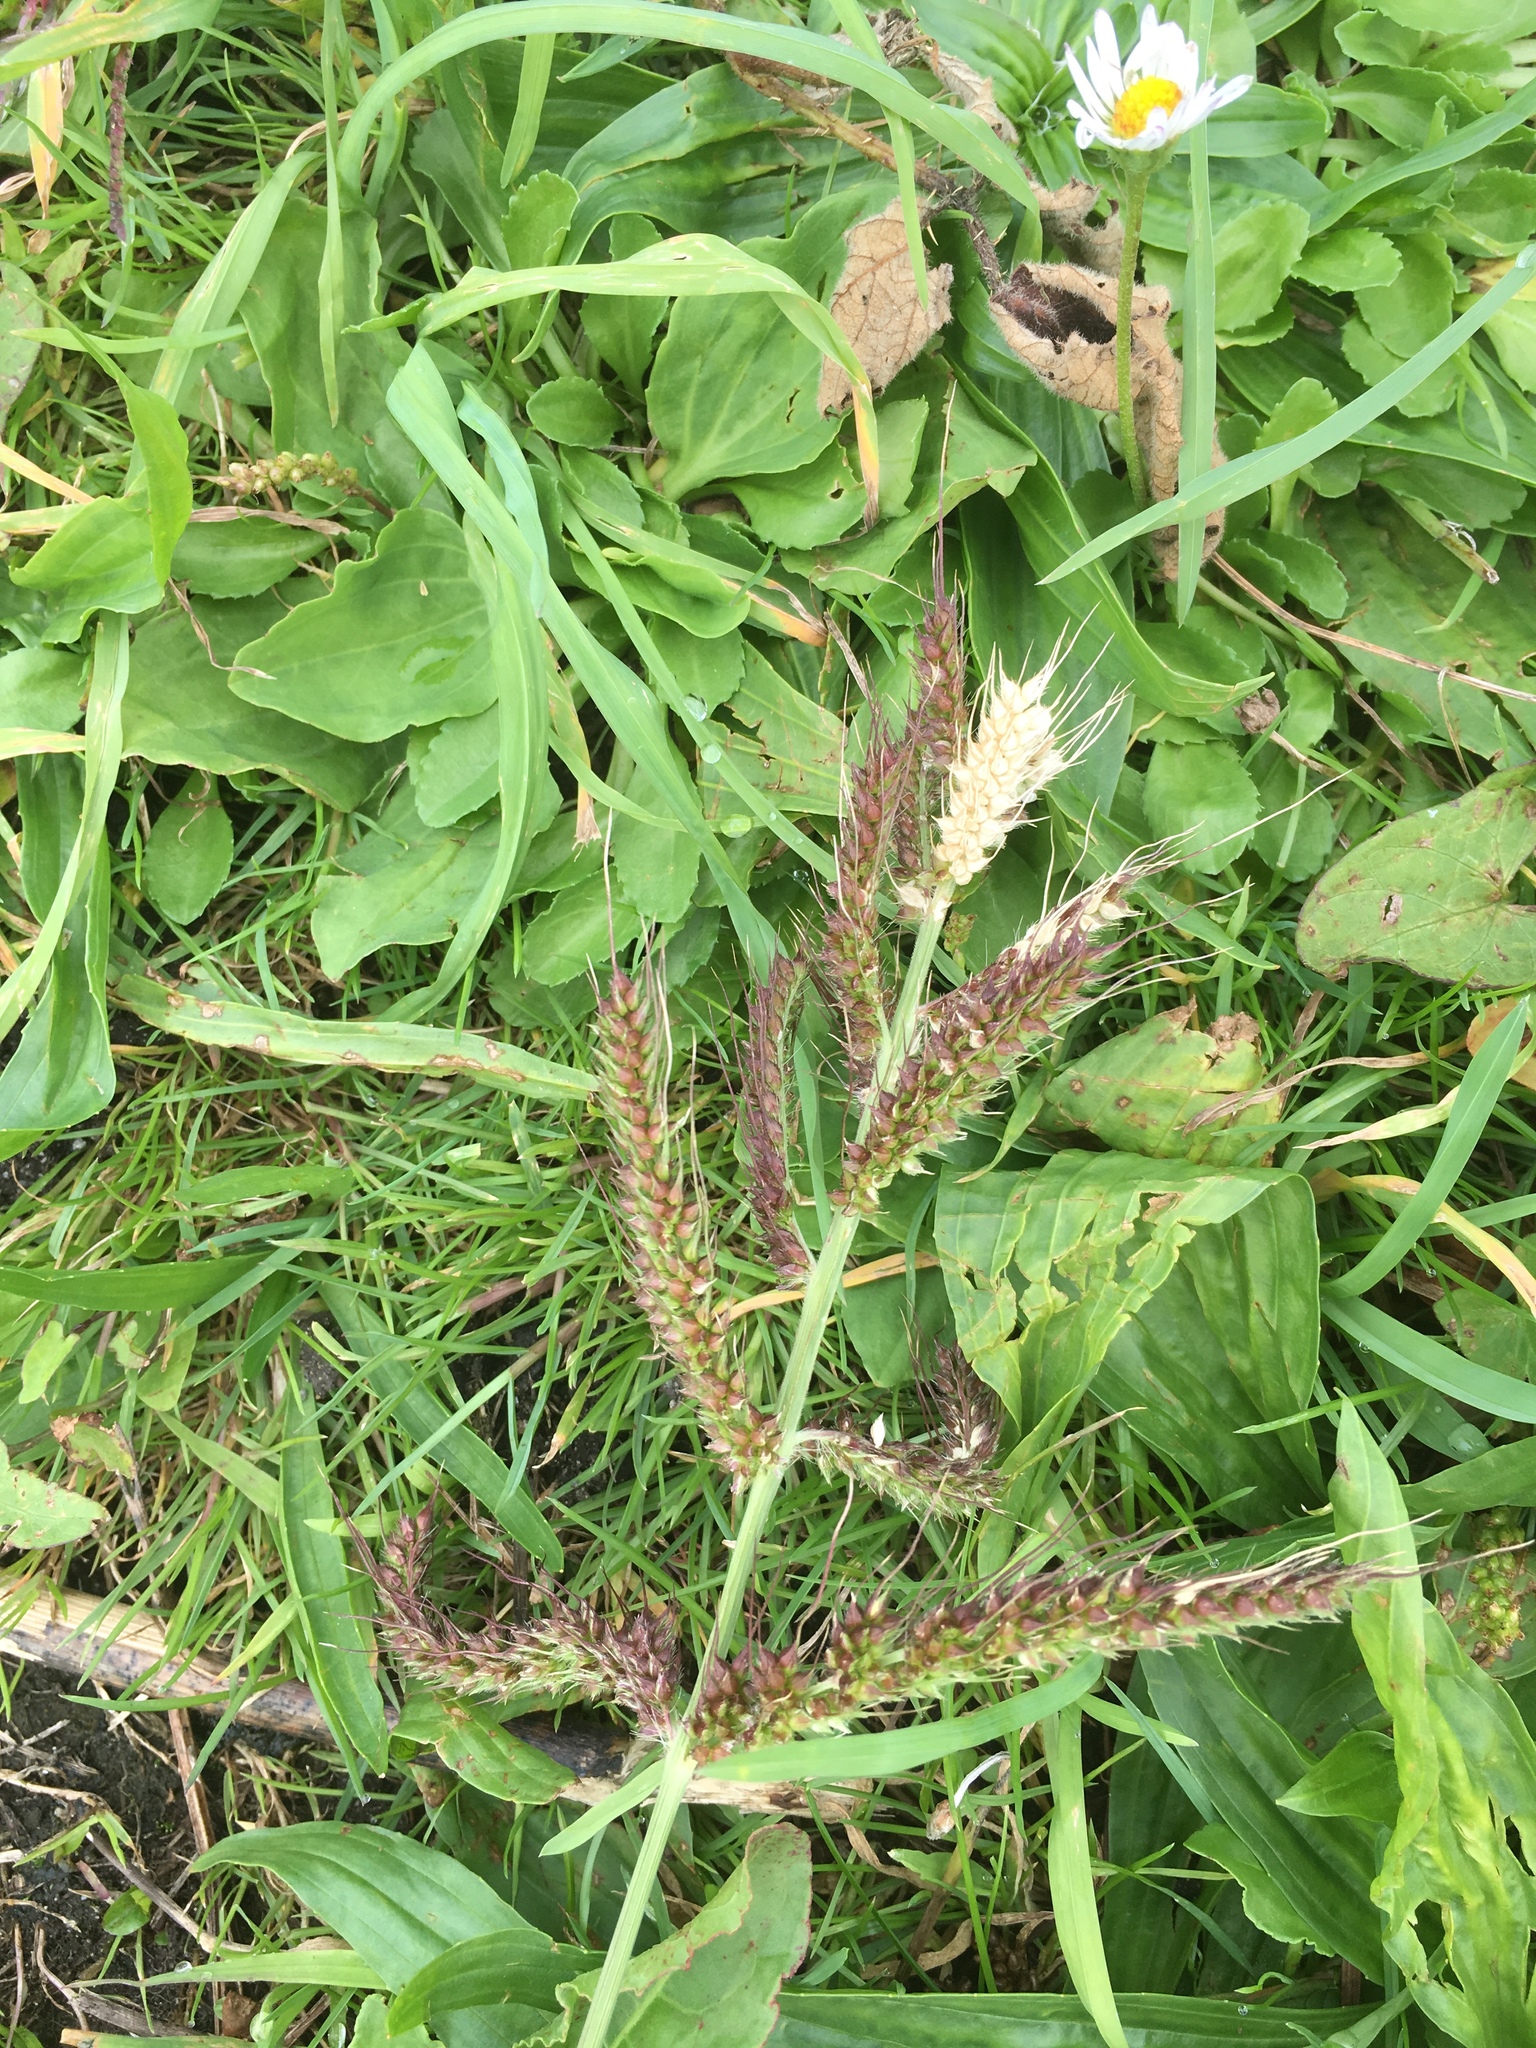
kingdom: Plantae
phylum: Tracheophyta
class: Liliopsida
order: Poales
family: Poaceae
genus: Echinochloa
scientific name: Echinochloa crus-galli
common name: Cockspur
